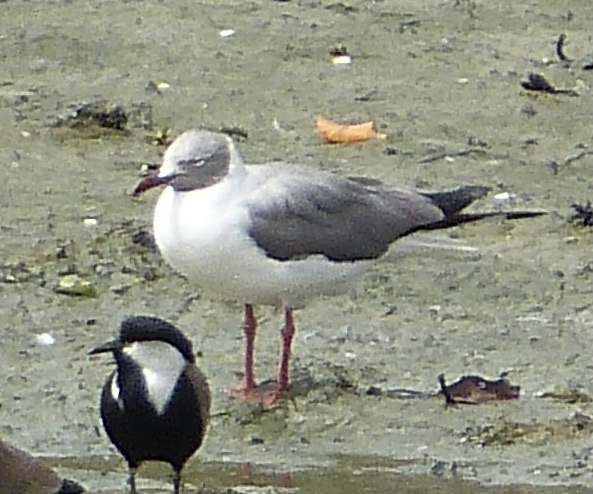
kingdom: Animalia
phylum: Chordata
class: Aves
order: Charadriiformes
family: Laridae
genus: Chroicocephalus
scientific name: Chroicocephalus cirrocephalus
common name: Grey-headed gull
